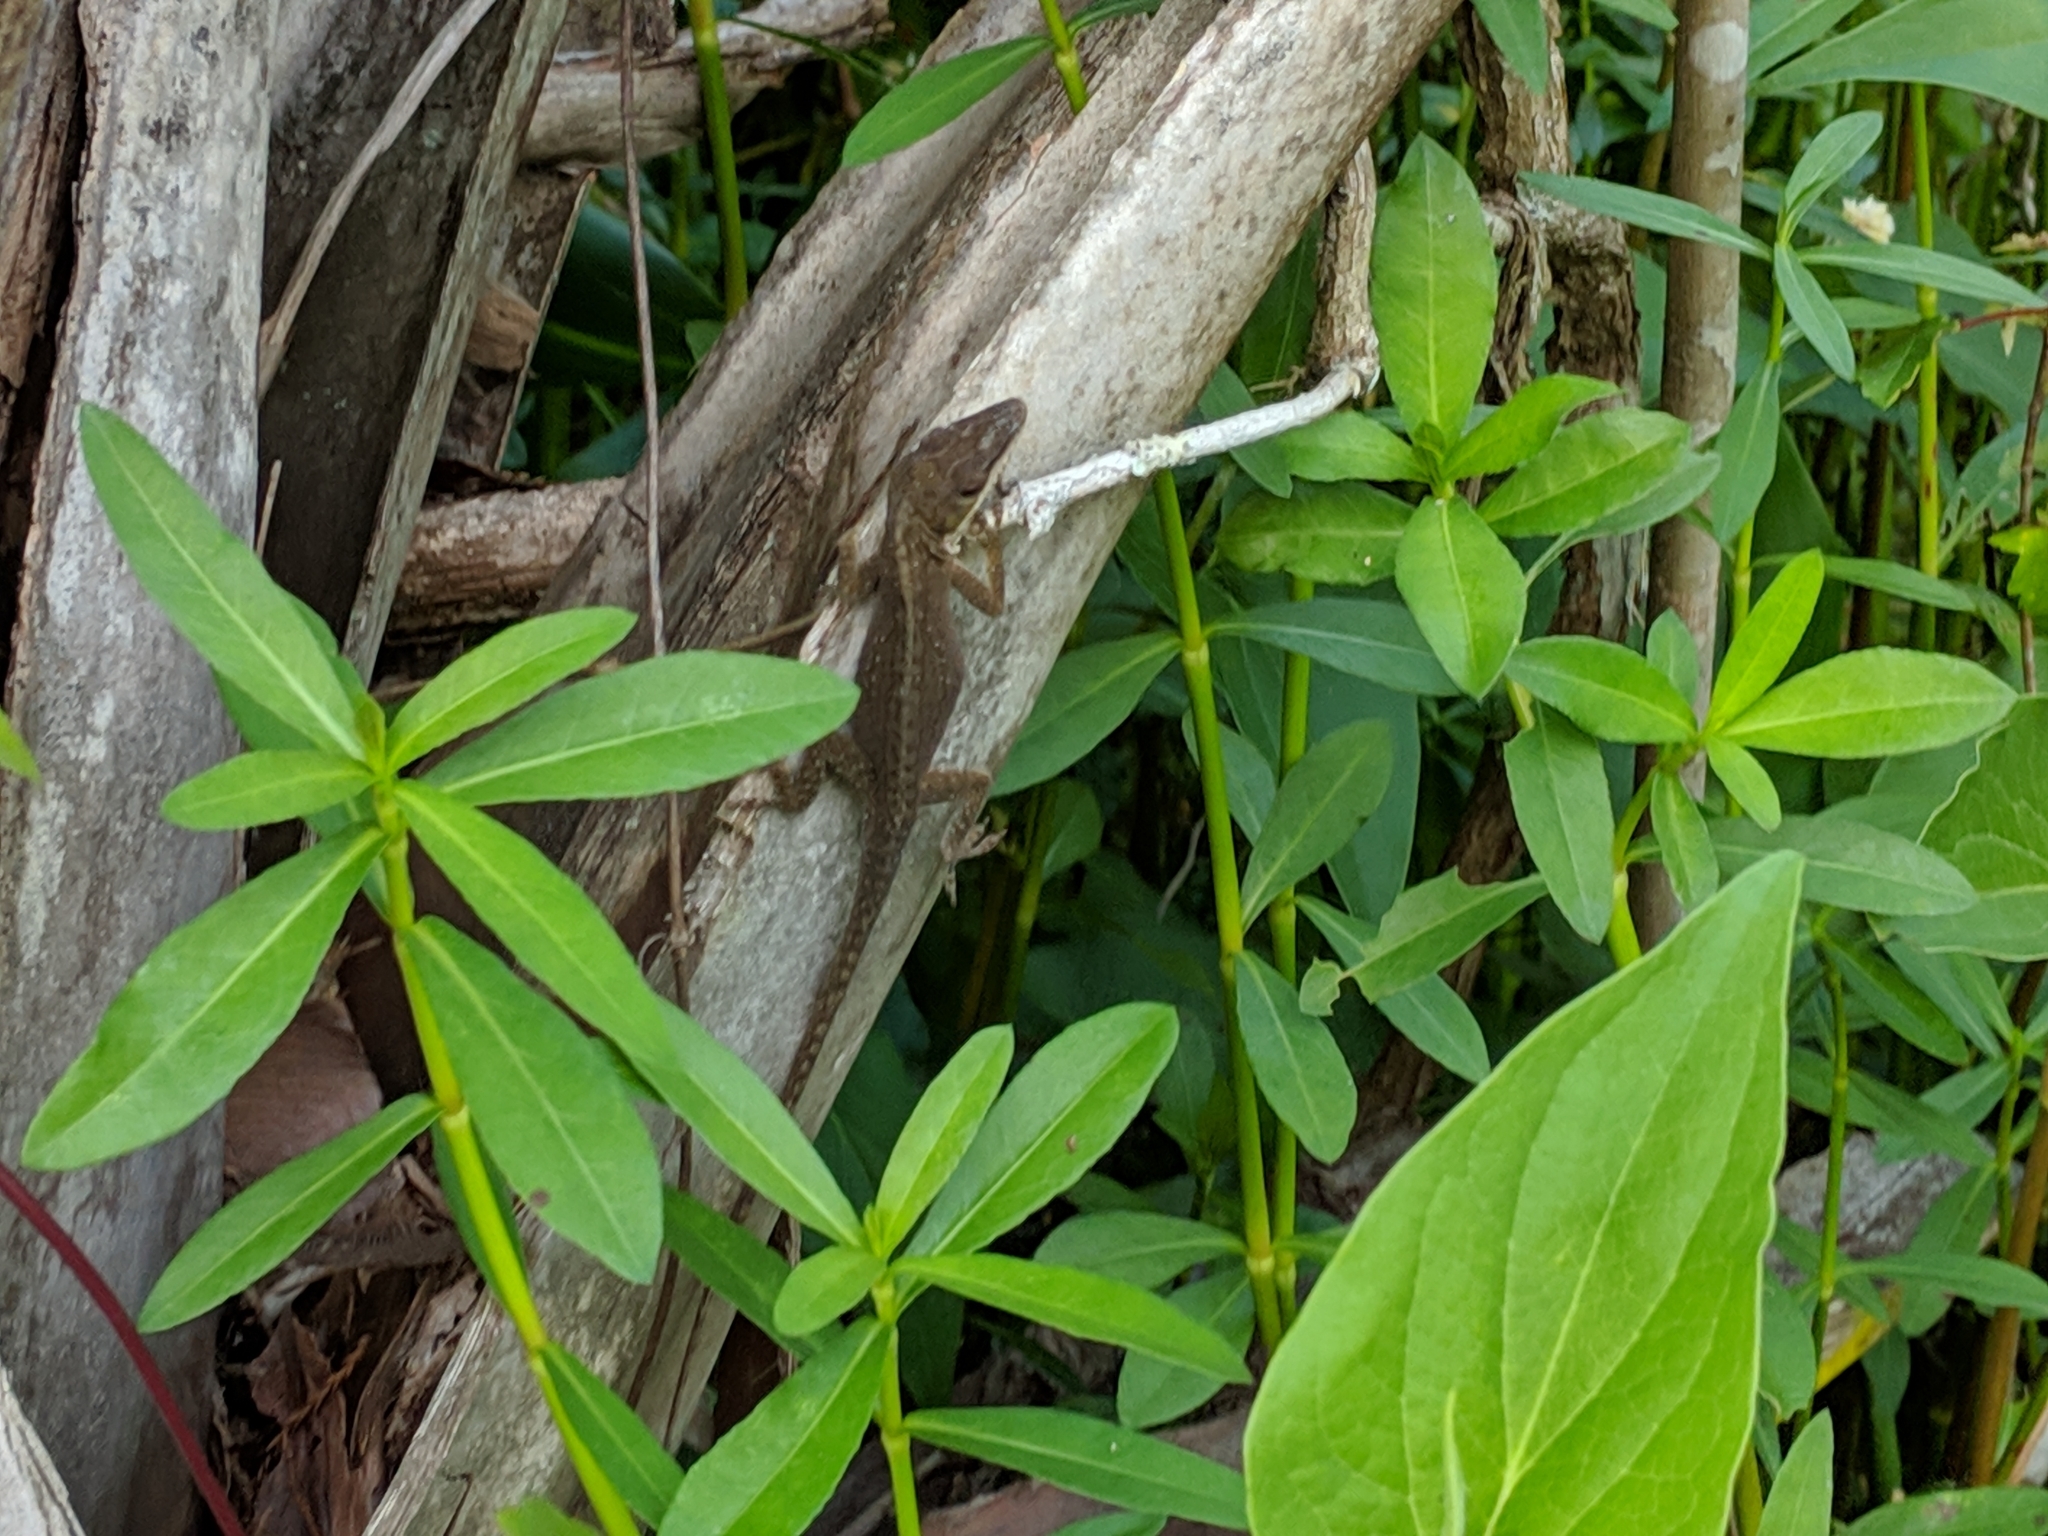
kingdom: Animalia
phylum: Chordata
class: Squamata
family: Dactyloidae
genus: Anolis
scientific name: Anolis carolinensis
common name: Green anole
